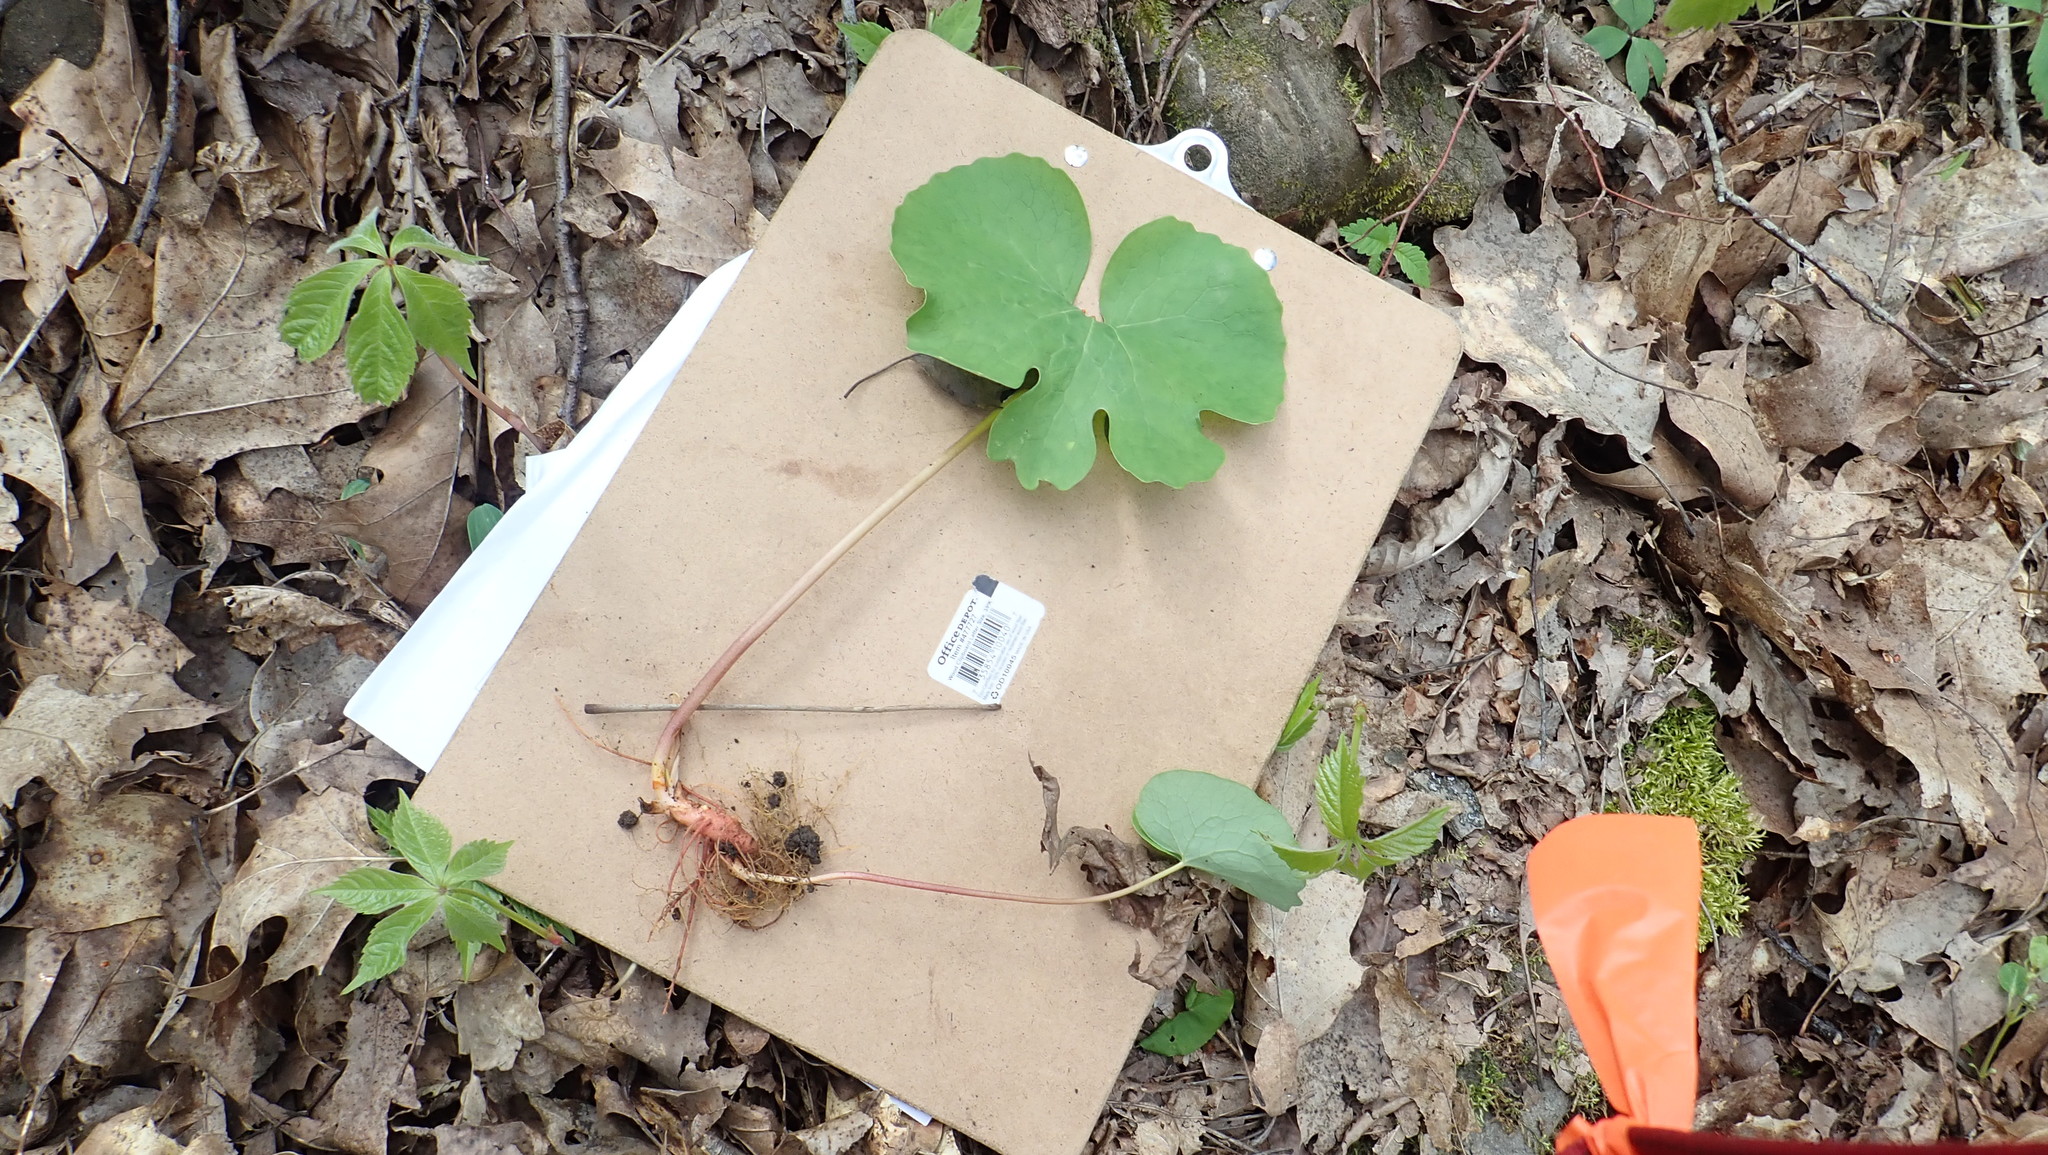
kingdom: Plantae
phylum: Tracheophyta
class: Magnoliopsida
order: Ranunculales
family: Papaveraceae
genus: Sanguinaria
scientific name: Sanguinaria canadensis
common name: Bloodroot
